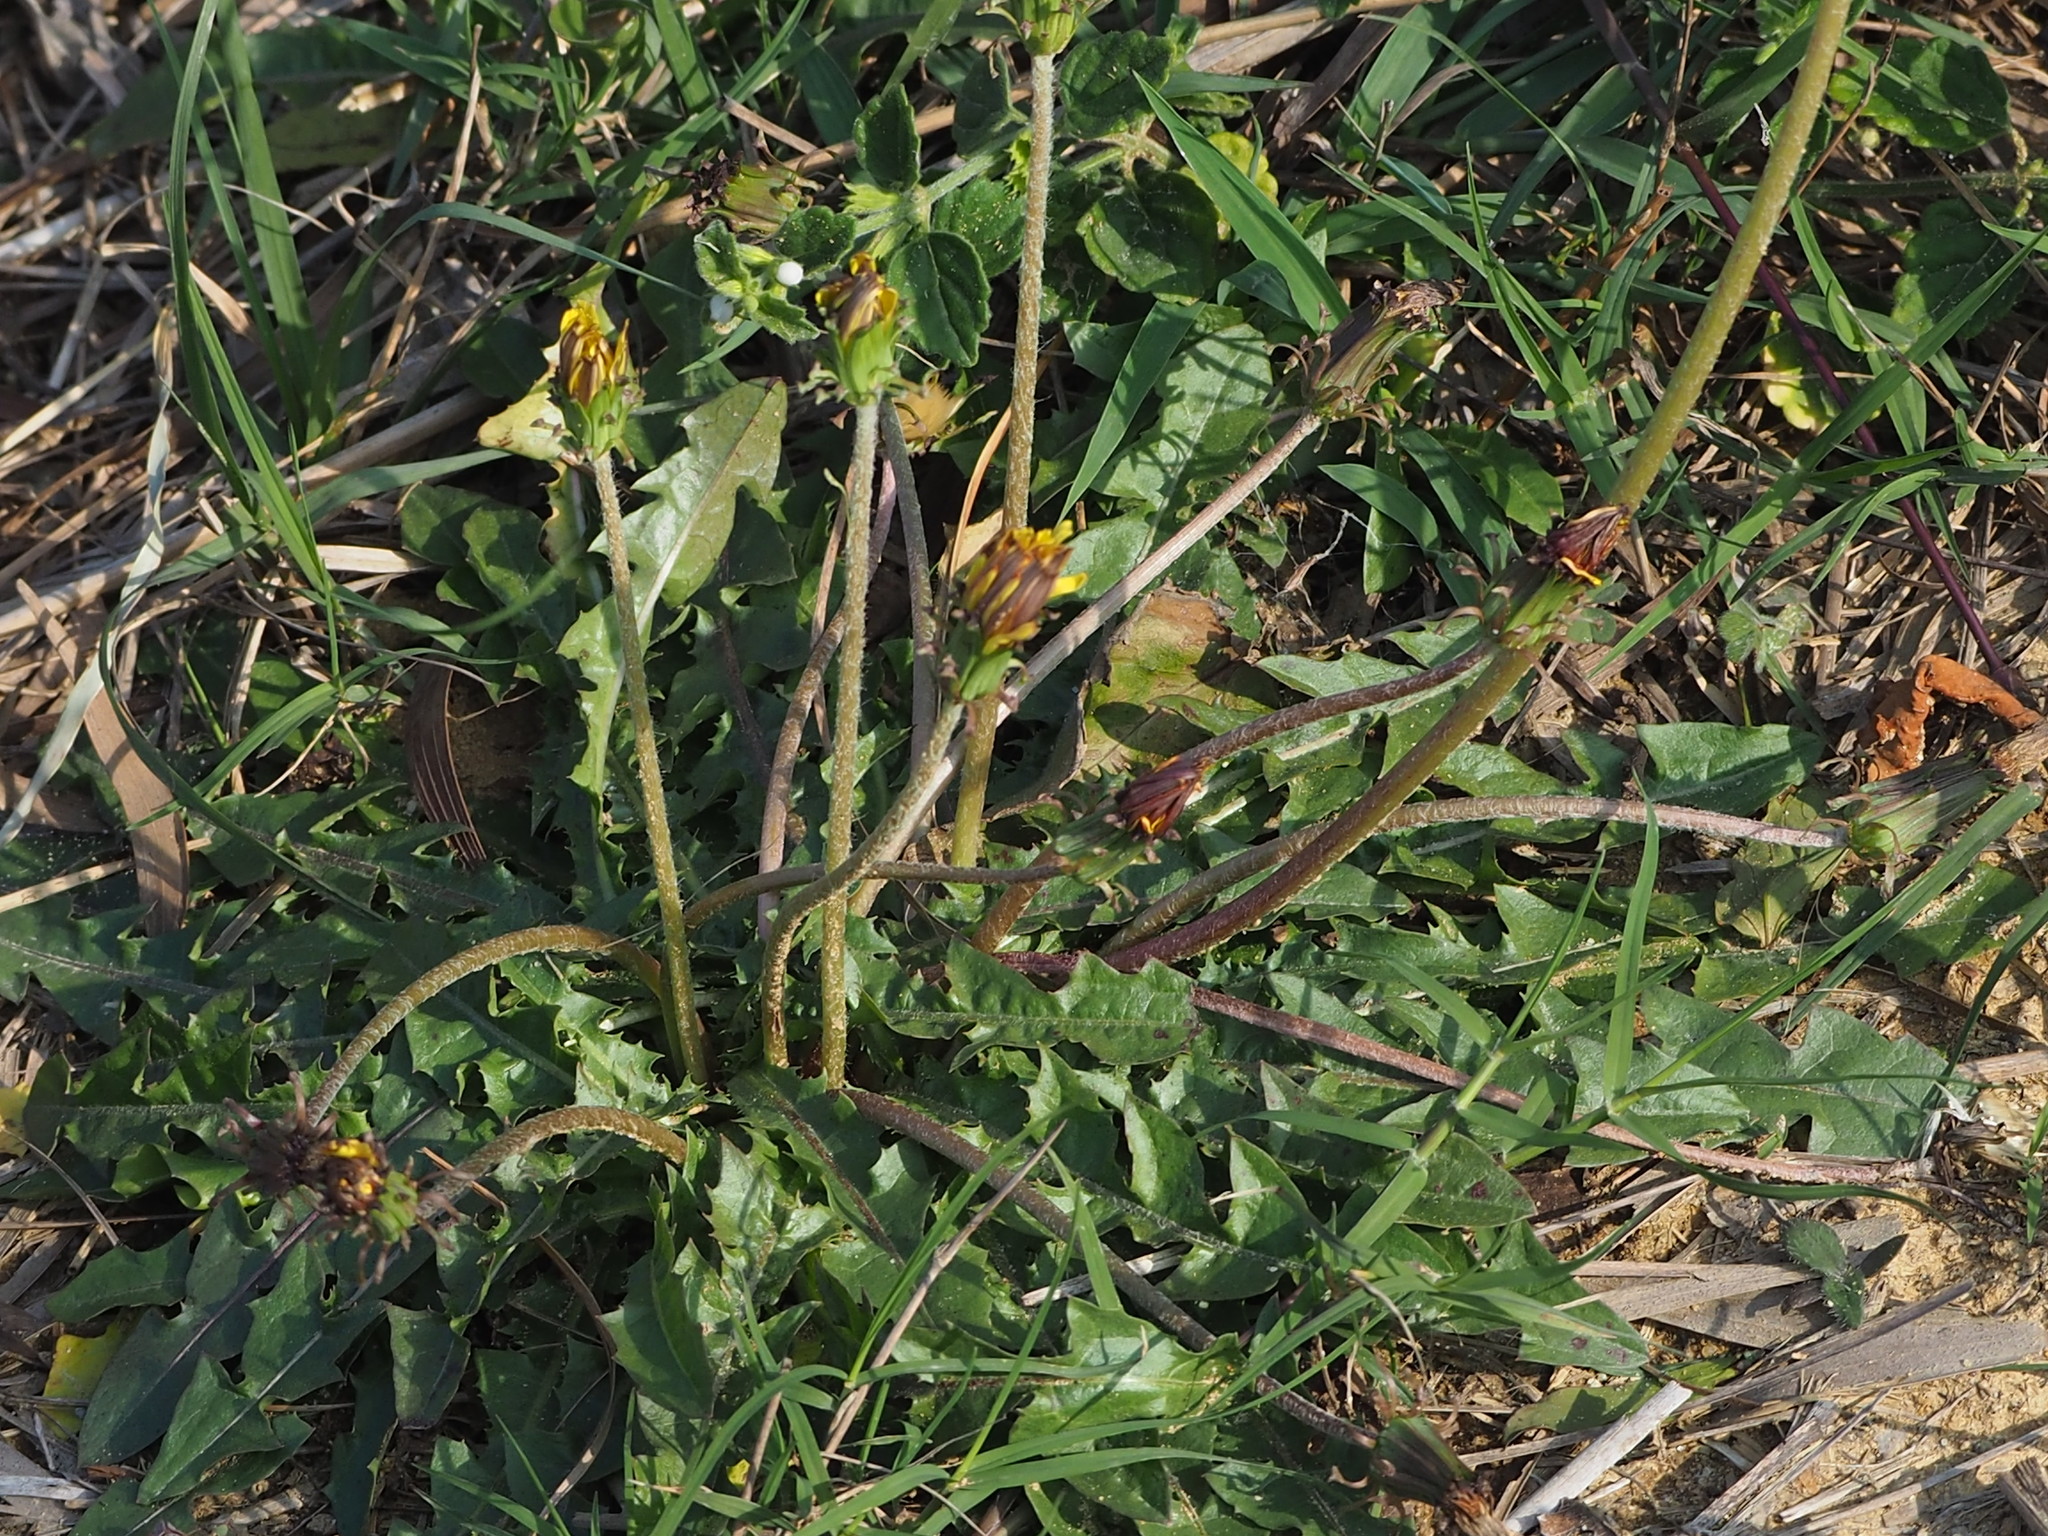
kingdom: Plantae
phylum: Tracheophyta
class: Magnoliopsida
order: Asterales
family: Asteraceae
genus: Taraxacum
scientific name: Taraxacum formosanum
